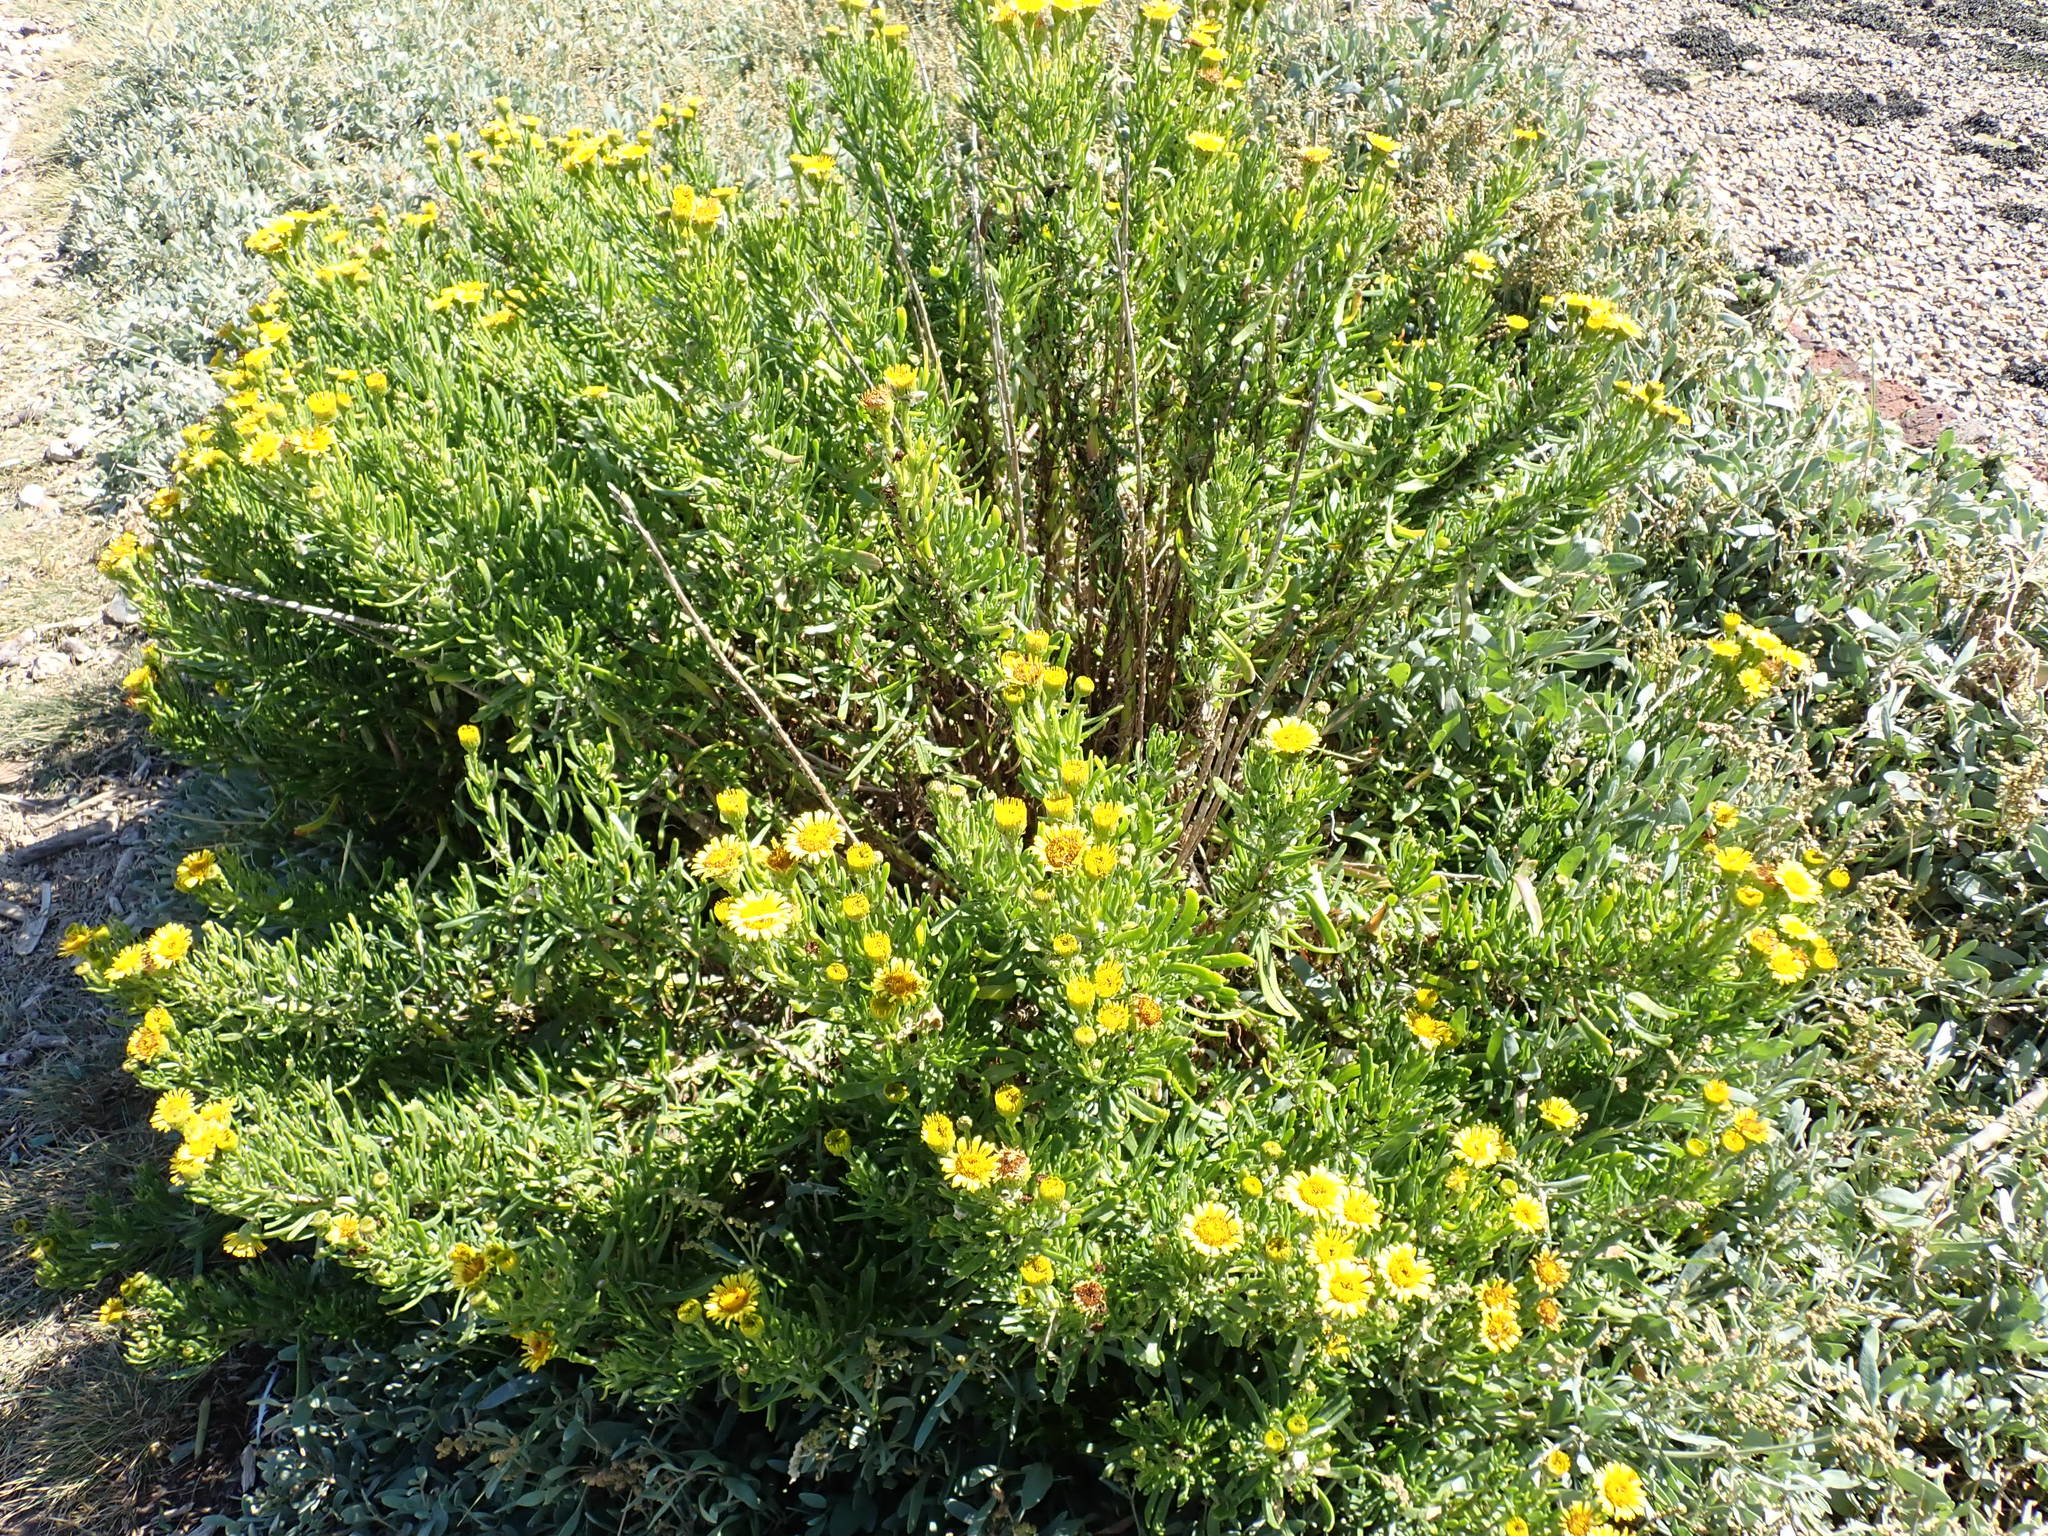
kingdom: Plantae
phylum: Tracheophyta
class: Magnoliopsida
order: Asterales
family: Asteraceae
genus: Limbarda
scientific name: Limbarda crithmoides
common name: Golden samphire
